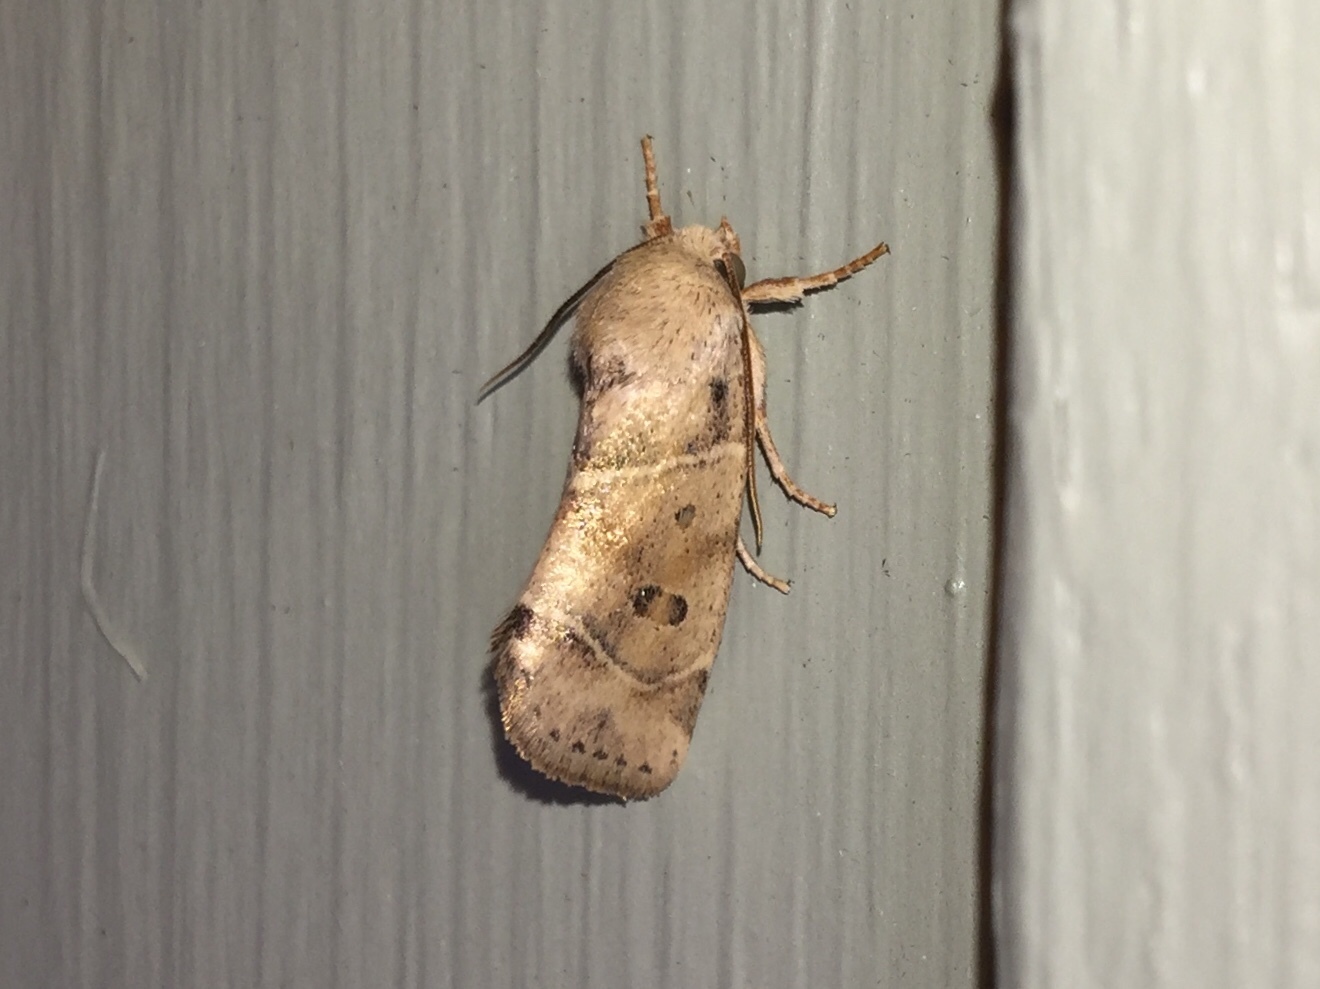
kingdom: Animalia
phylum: Arthropoda
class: Insecta
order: Lepidoptera
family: Noctuidae
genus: Cosmia
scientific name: Cosmia calami
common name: American dun-bar moth
